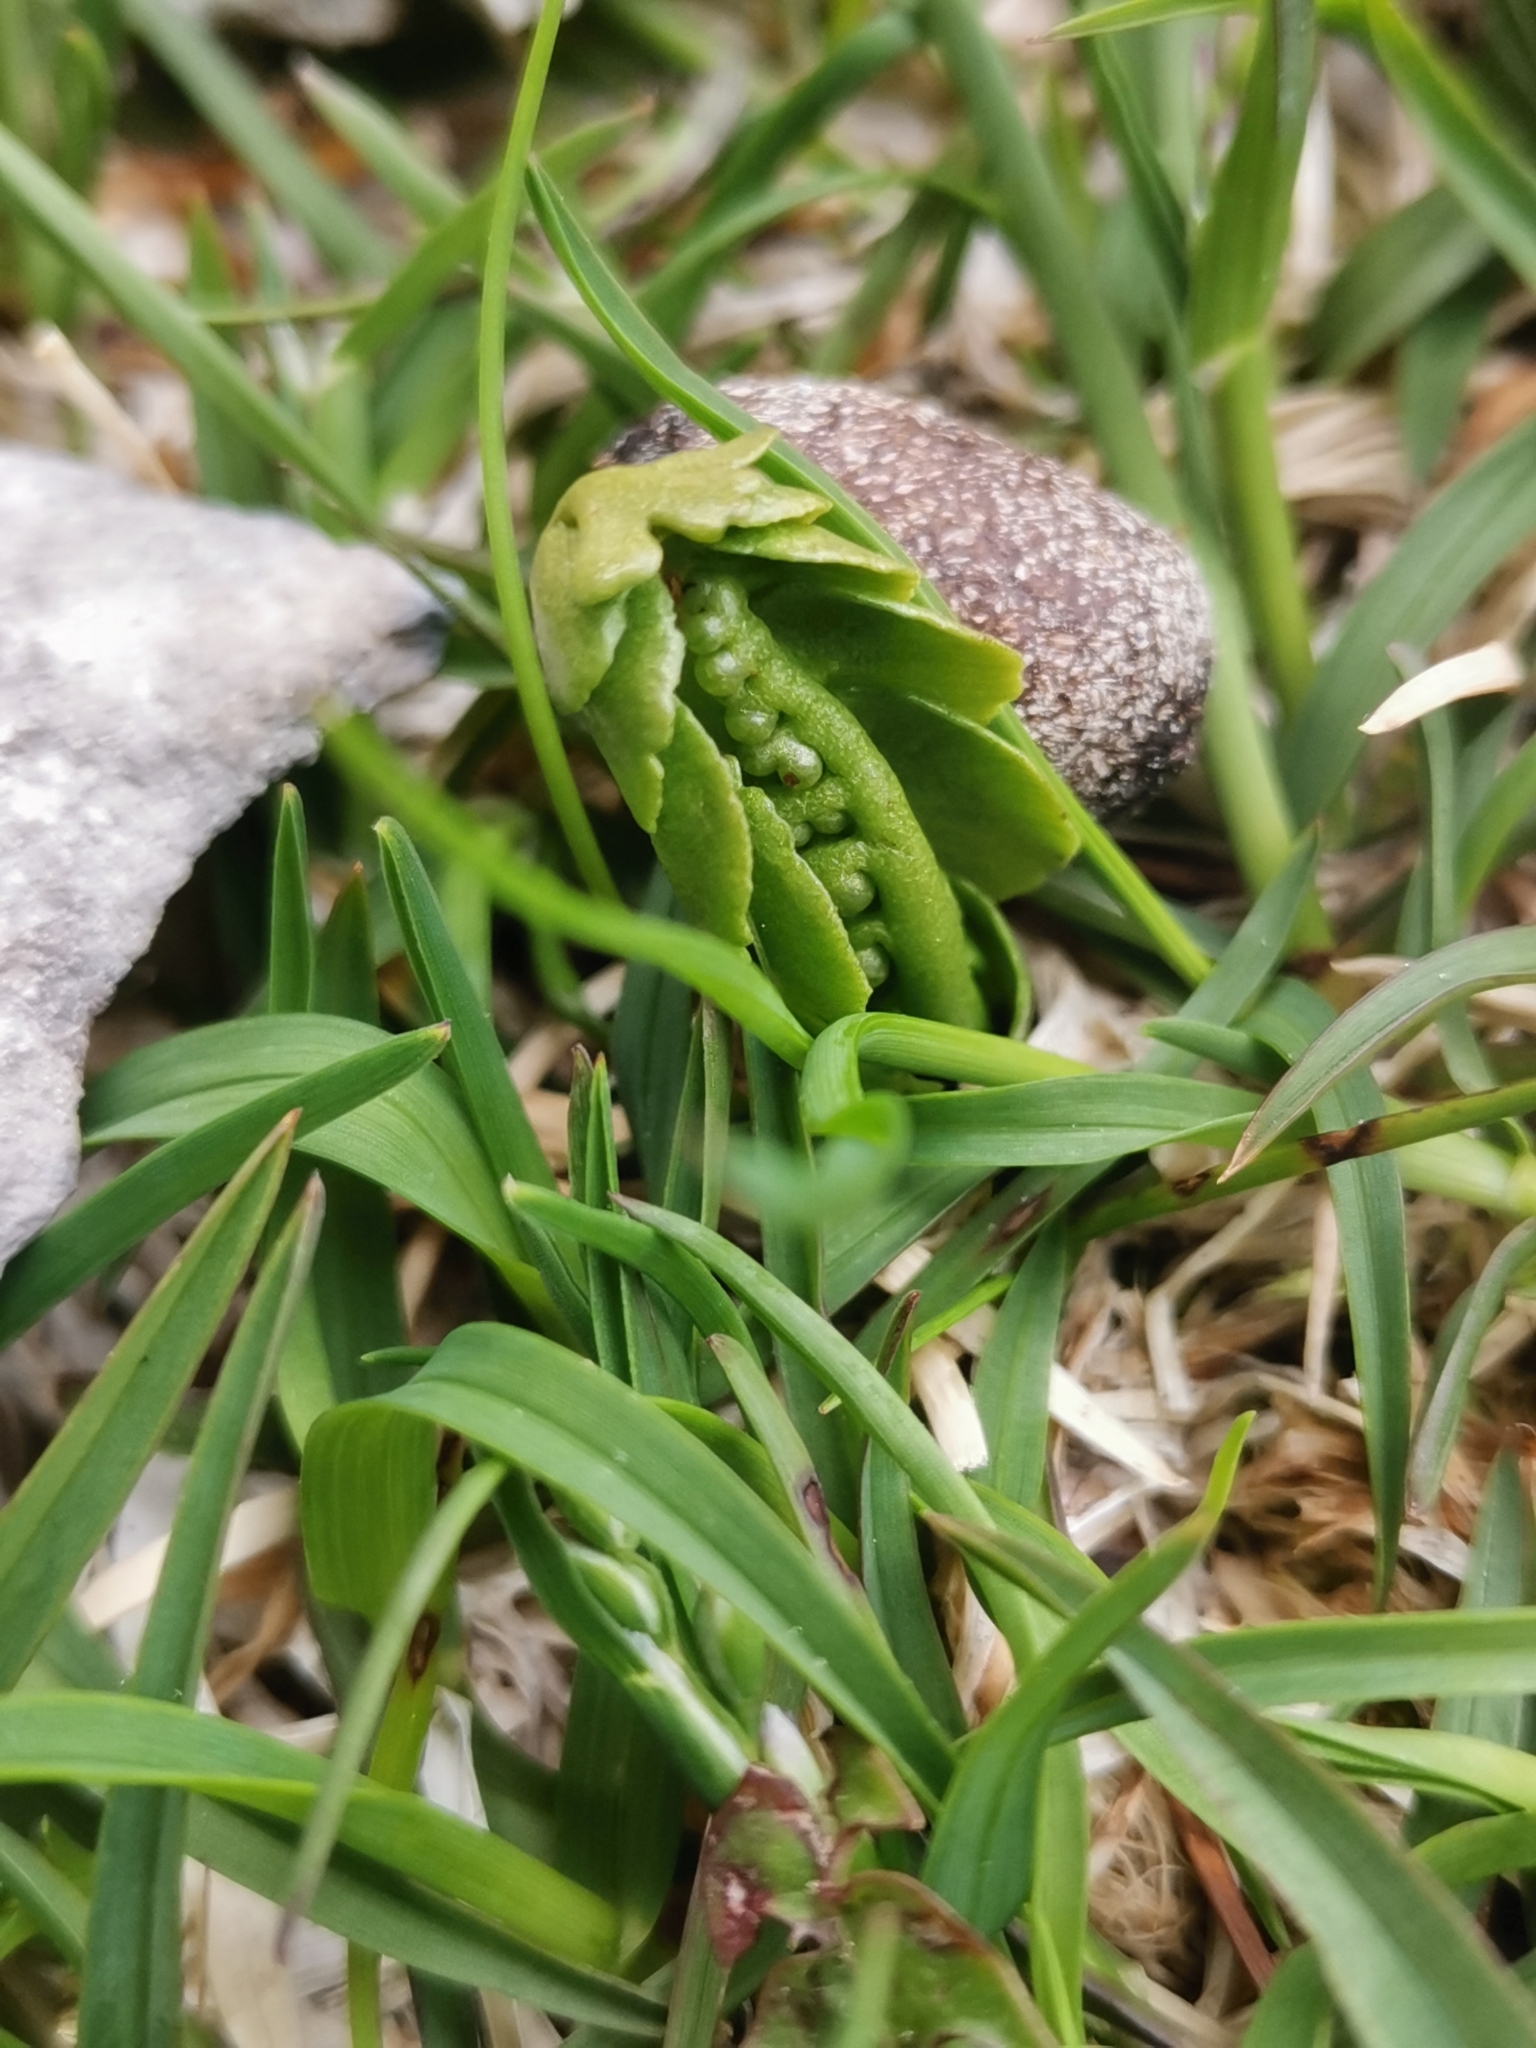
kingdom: Plantae
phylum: Tracheophyta
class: Polypodiopsida
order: Ophioglossales
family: Ophioglossaceae
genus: Botrychium
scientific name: Botrychium lunaria
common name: Moonwort
